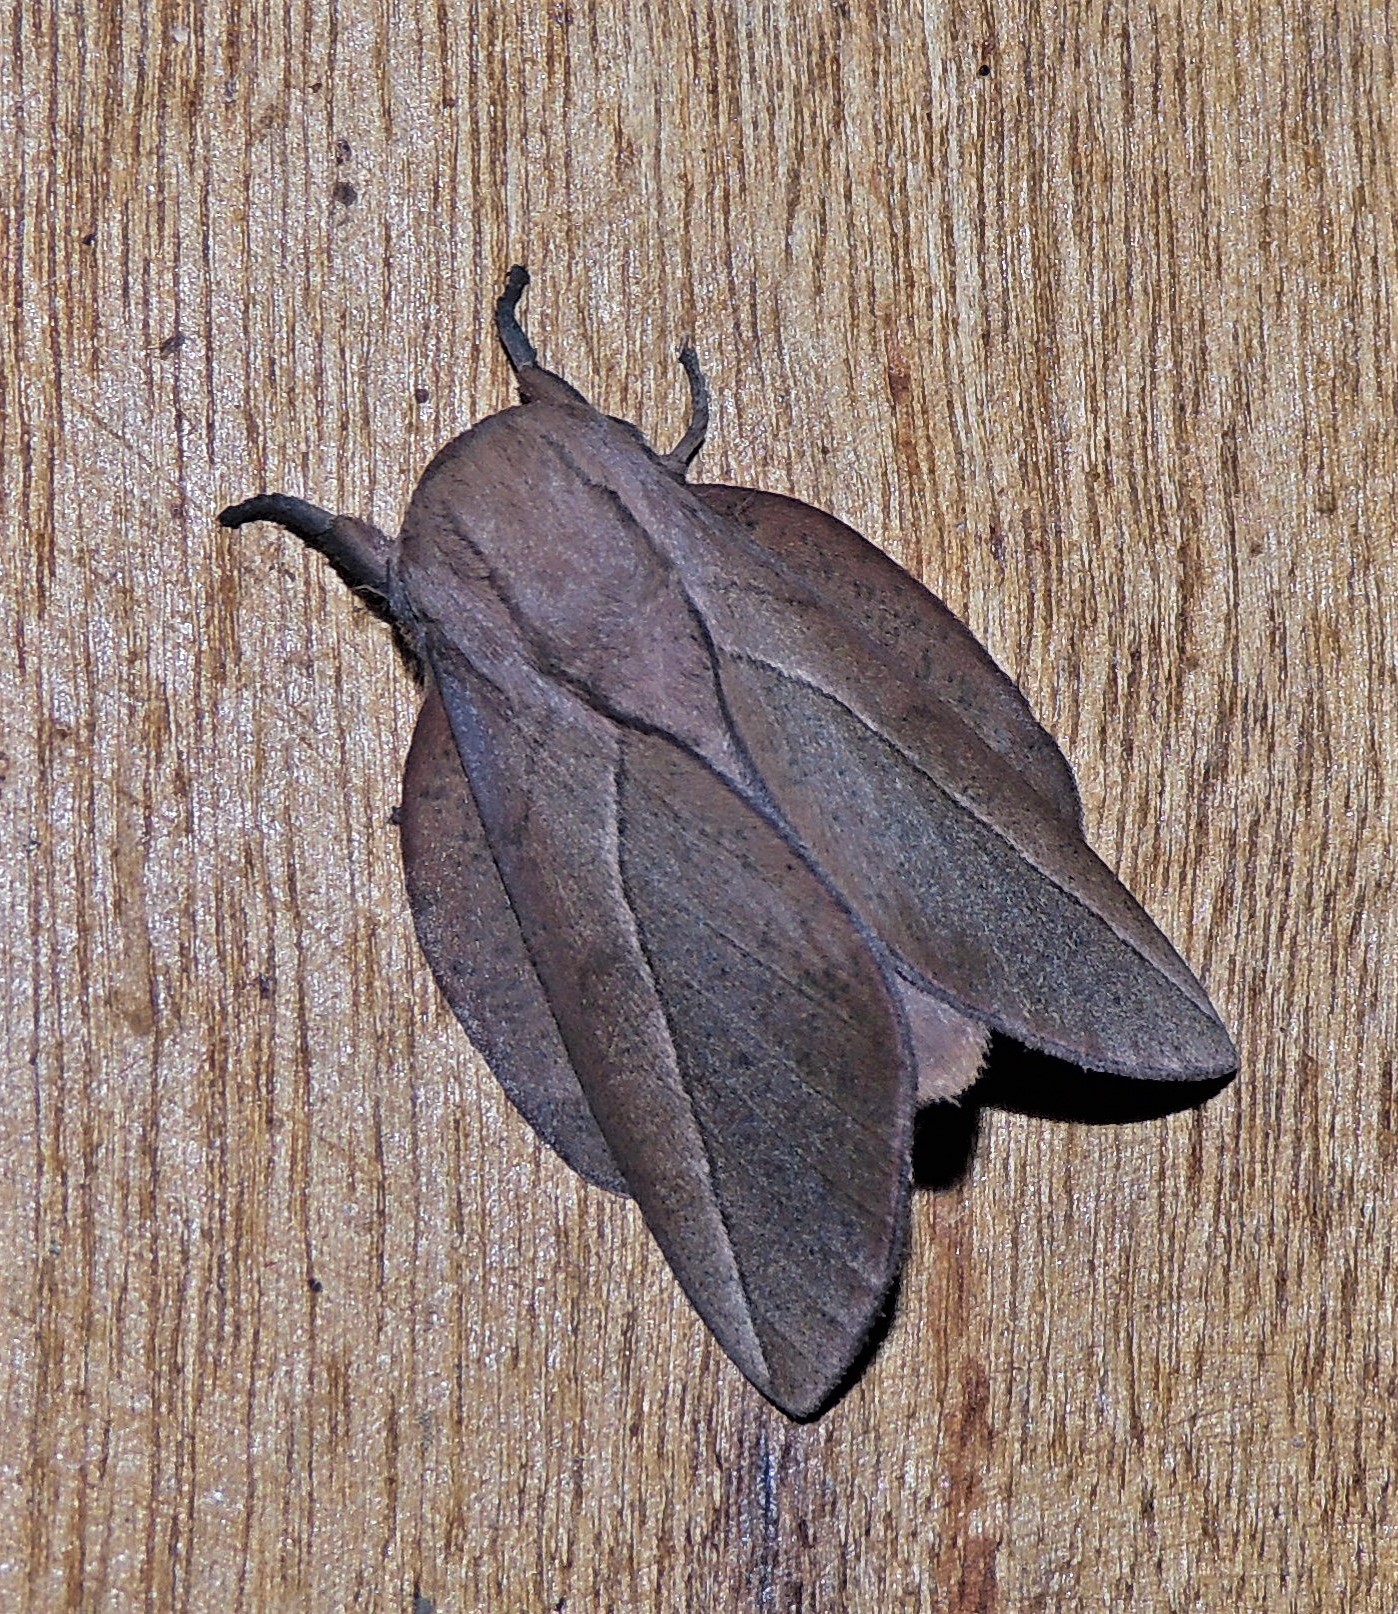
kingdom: Animalia
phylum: Arthropoda
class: Insecta
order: Lepidoptera
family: Saturniidae
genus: Oiticella
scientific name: Oiticella luteciae
